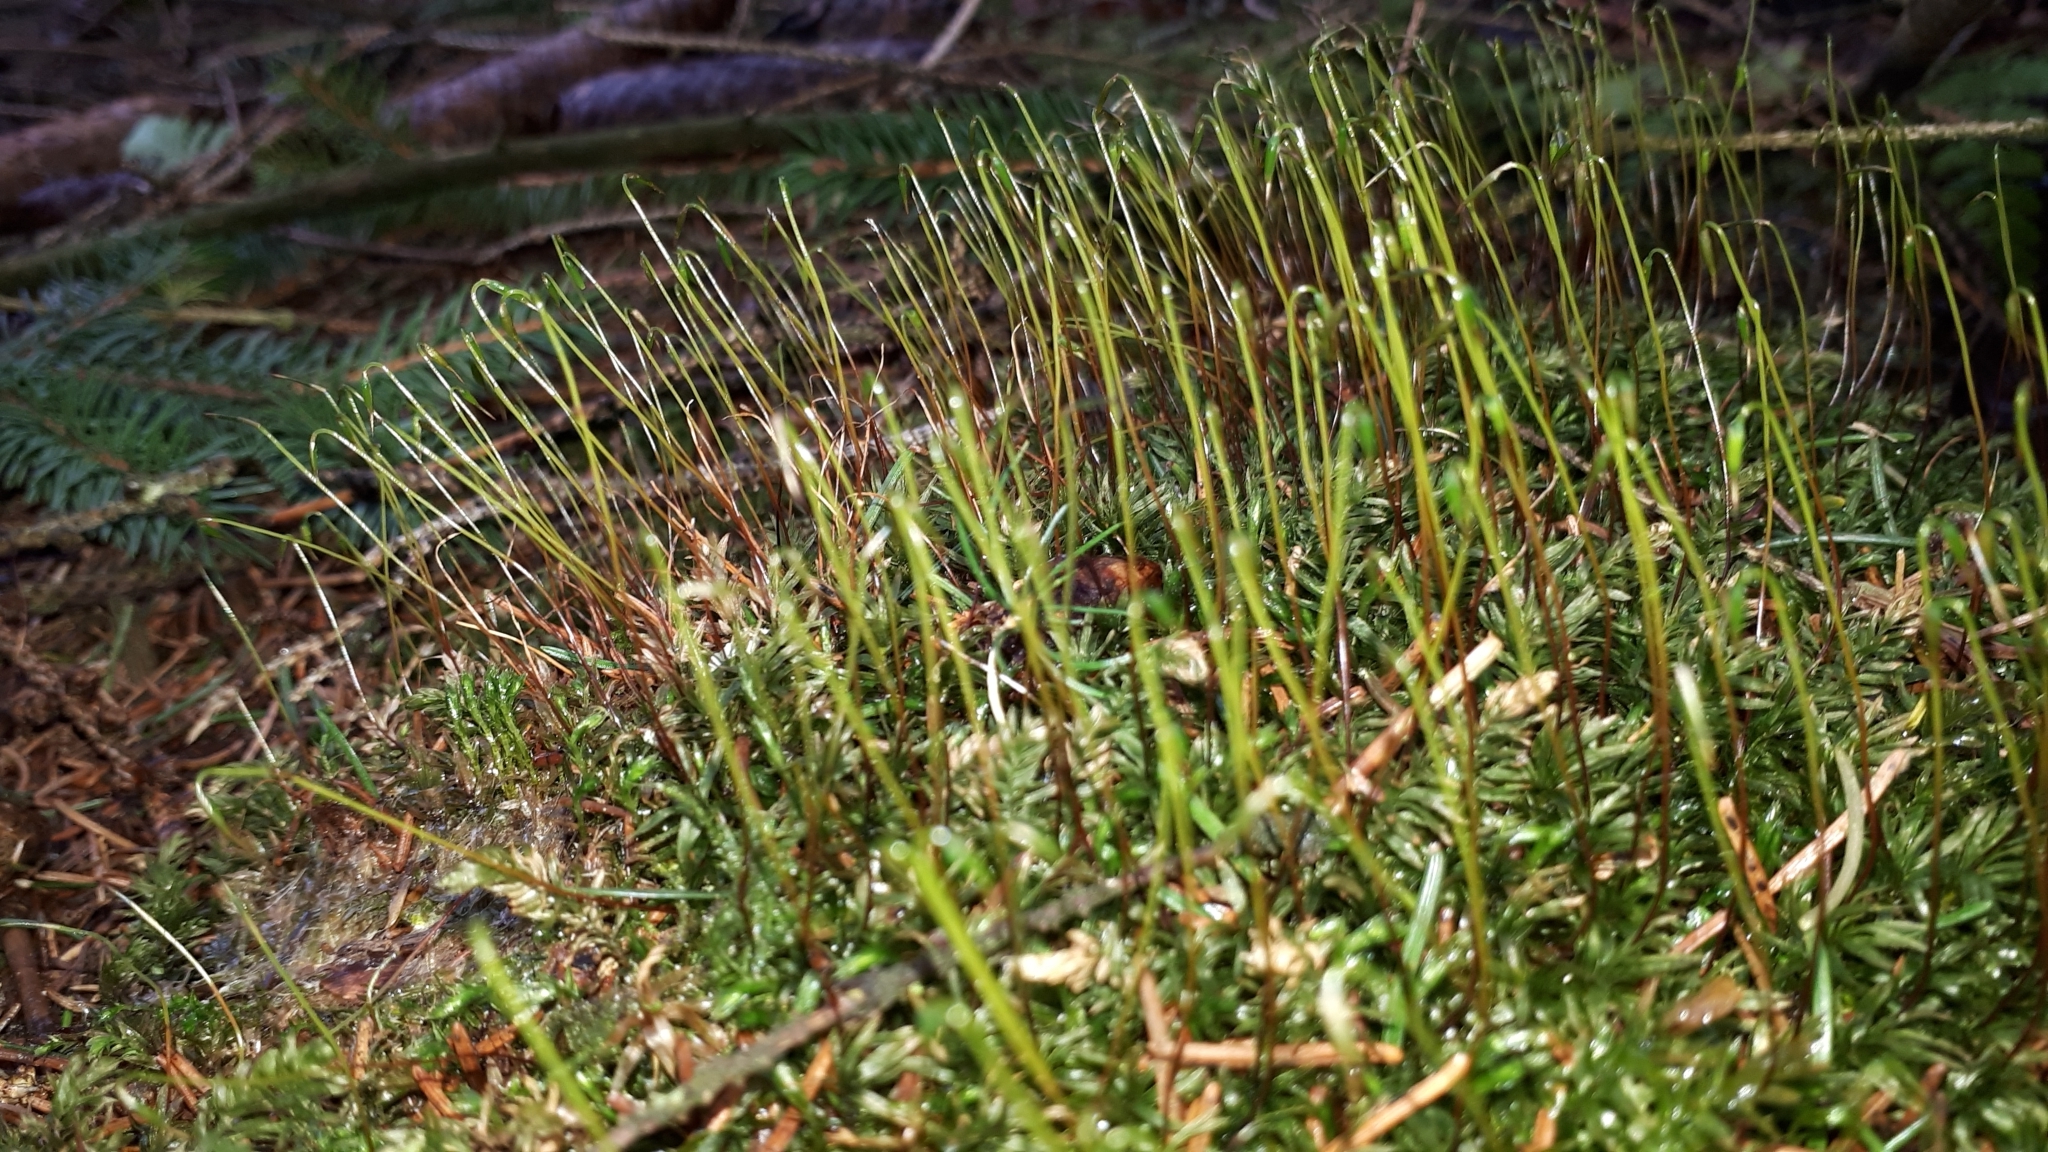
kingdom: Plantae
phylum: Bryophyta
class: Bryopsida
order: Bryales
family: Mniaceae
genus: Mnium
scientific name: Mnium hornum
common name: Swan's-neck leafy moss
